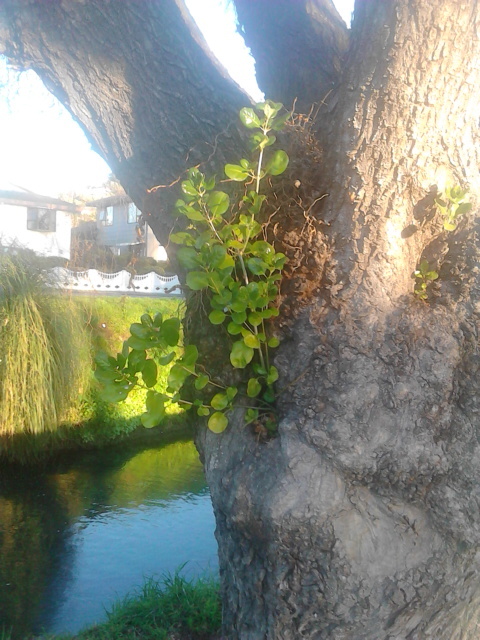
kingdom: Plantae
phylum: Tracheophyta
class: Magnoliopsida
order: Gentianales
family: Rubiaceae
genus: Coprosma
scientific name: Coprosma repens
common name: Tree bedstraw
